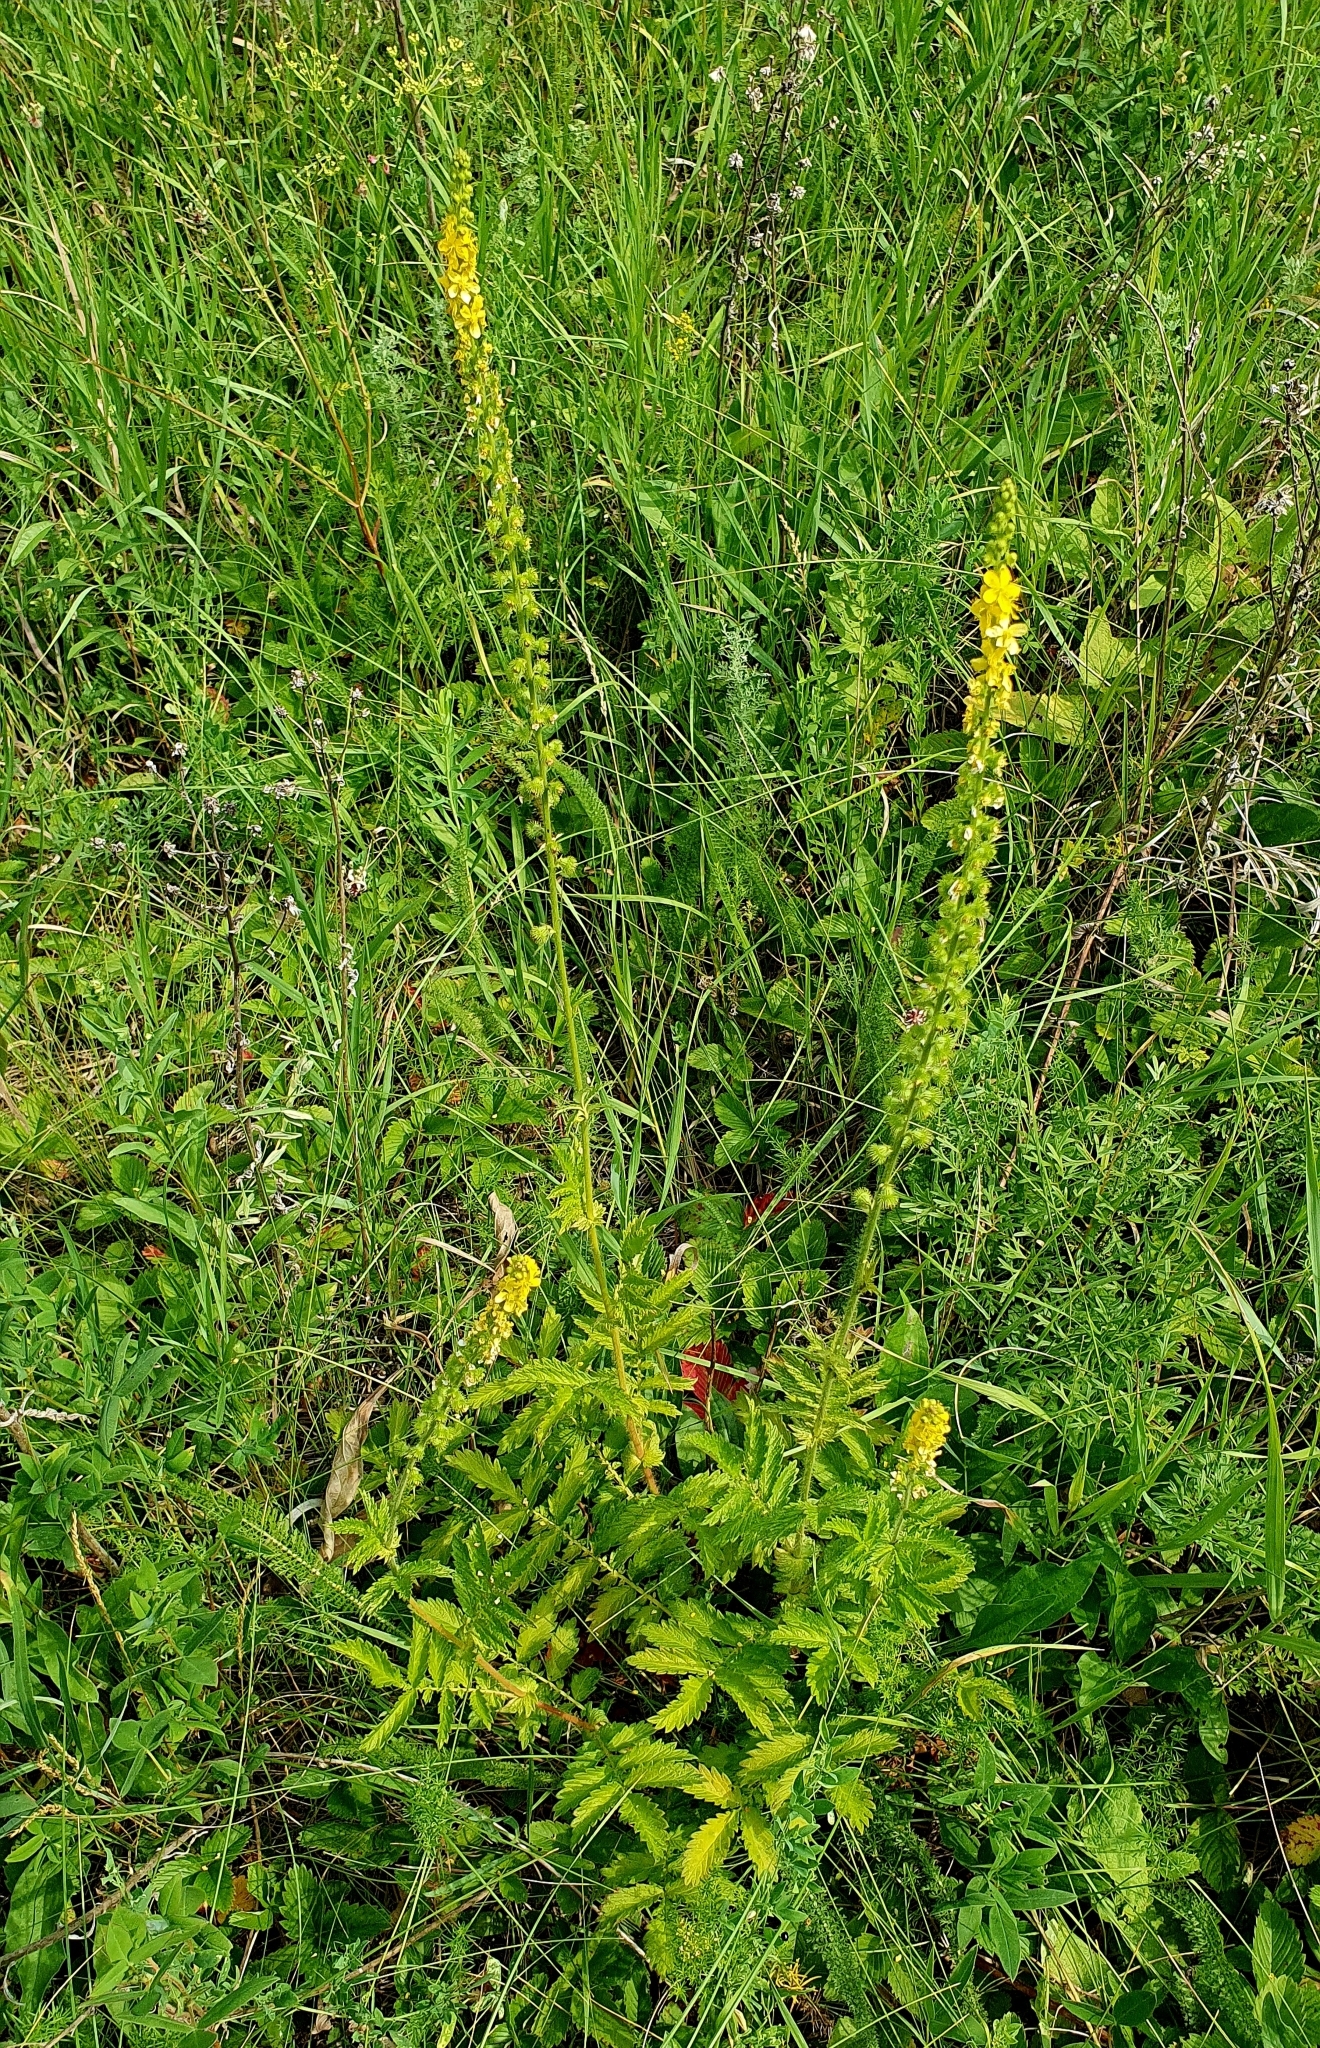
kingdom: Plantae
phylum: Tracheophyta
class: Magnoliopsida
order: Rosales
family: Rosaceae
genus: Agrimonia
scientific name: Agrimonia eupatoria
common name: Agrimony
